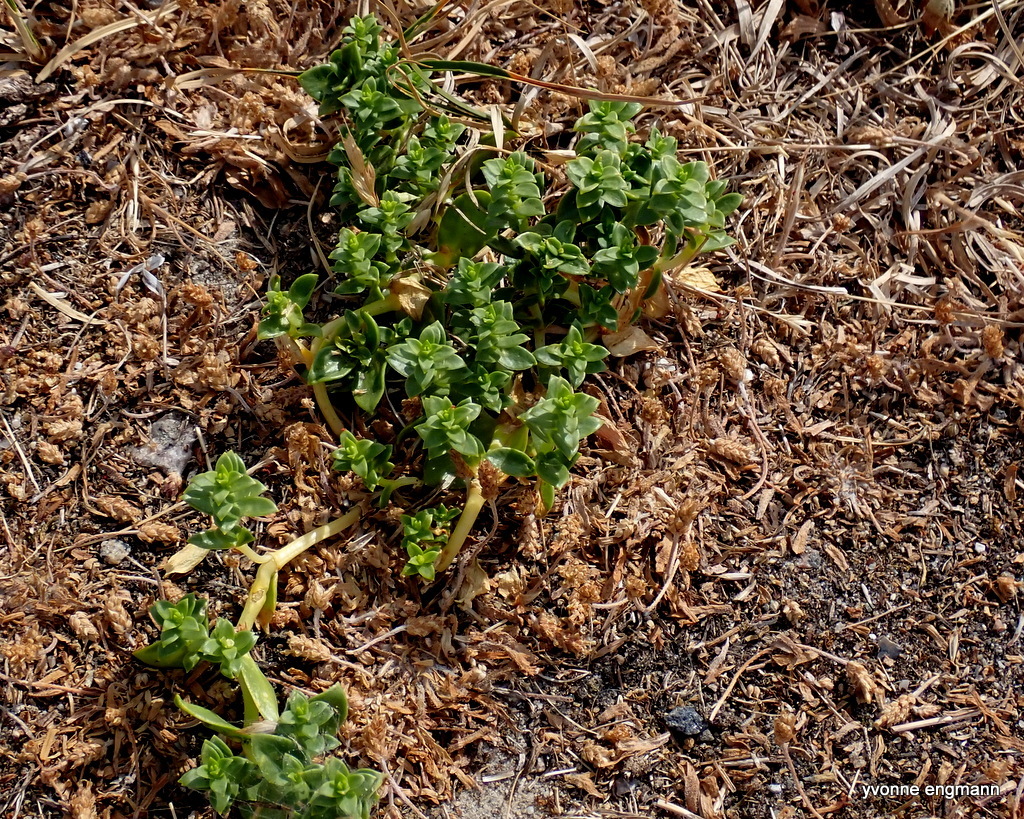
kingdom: Plantae
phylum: Tracheophyta
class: Magnoliopsida
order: Caryophyllales
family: Caryophyllaceae
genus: Honckenya
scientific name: Honckenya peploides
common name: Sea sandwort
